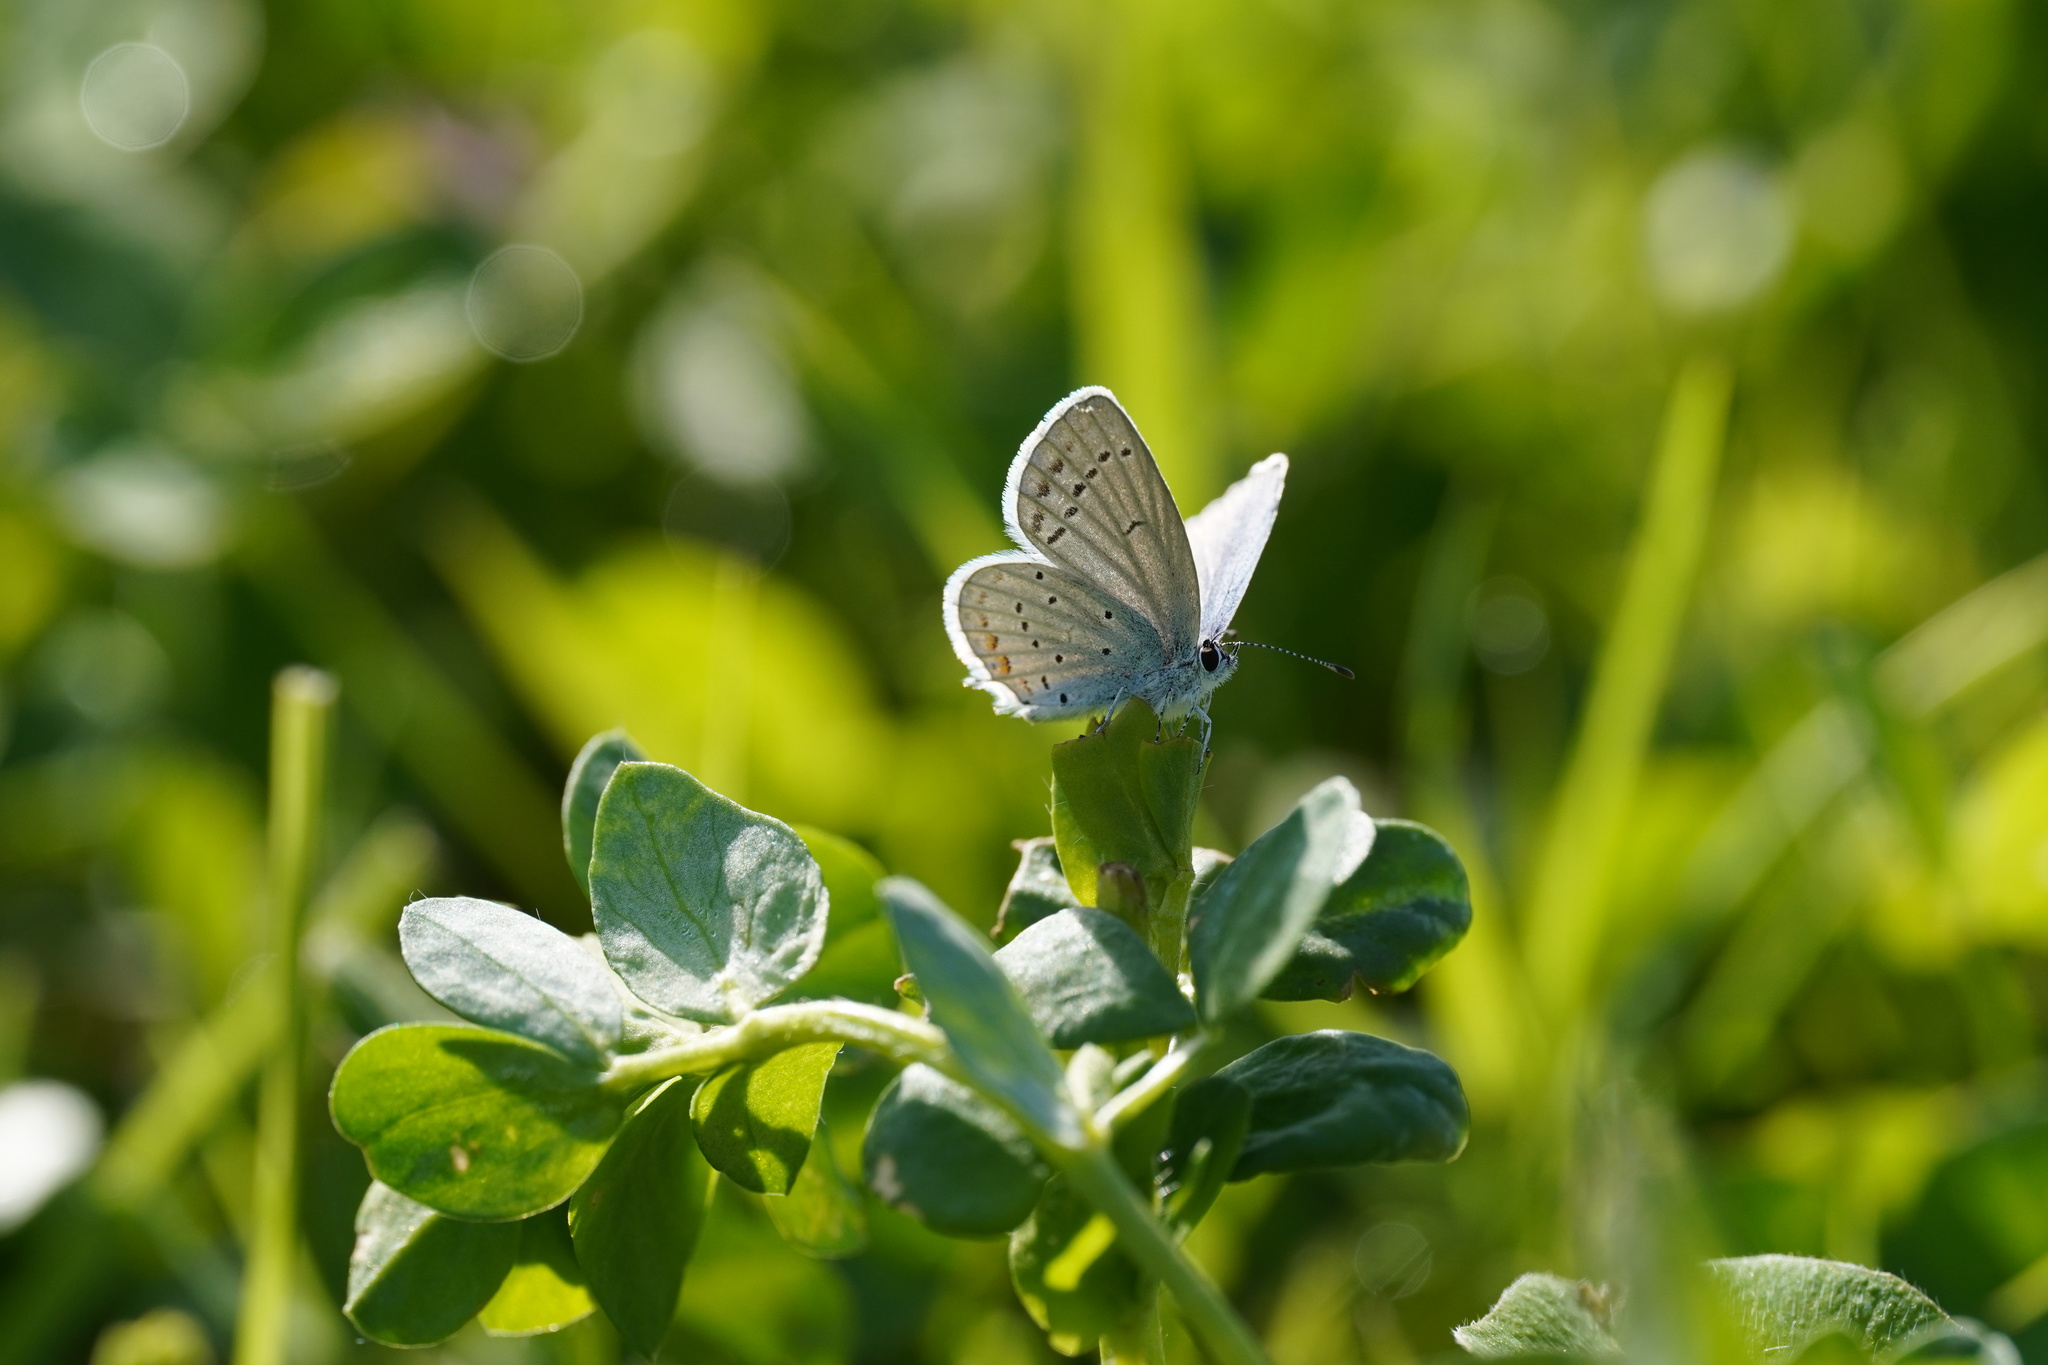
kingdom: Animalia
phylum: Arthropoda
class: Insecta
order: Lepidoptera
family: Lycaenidae
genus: Elkalyce
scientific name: Elkalyce argiades
